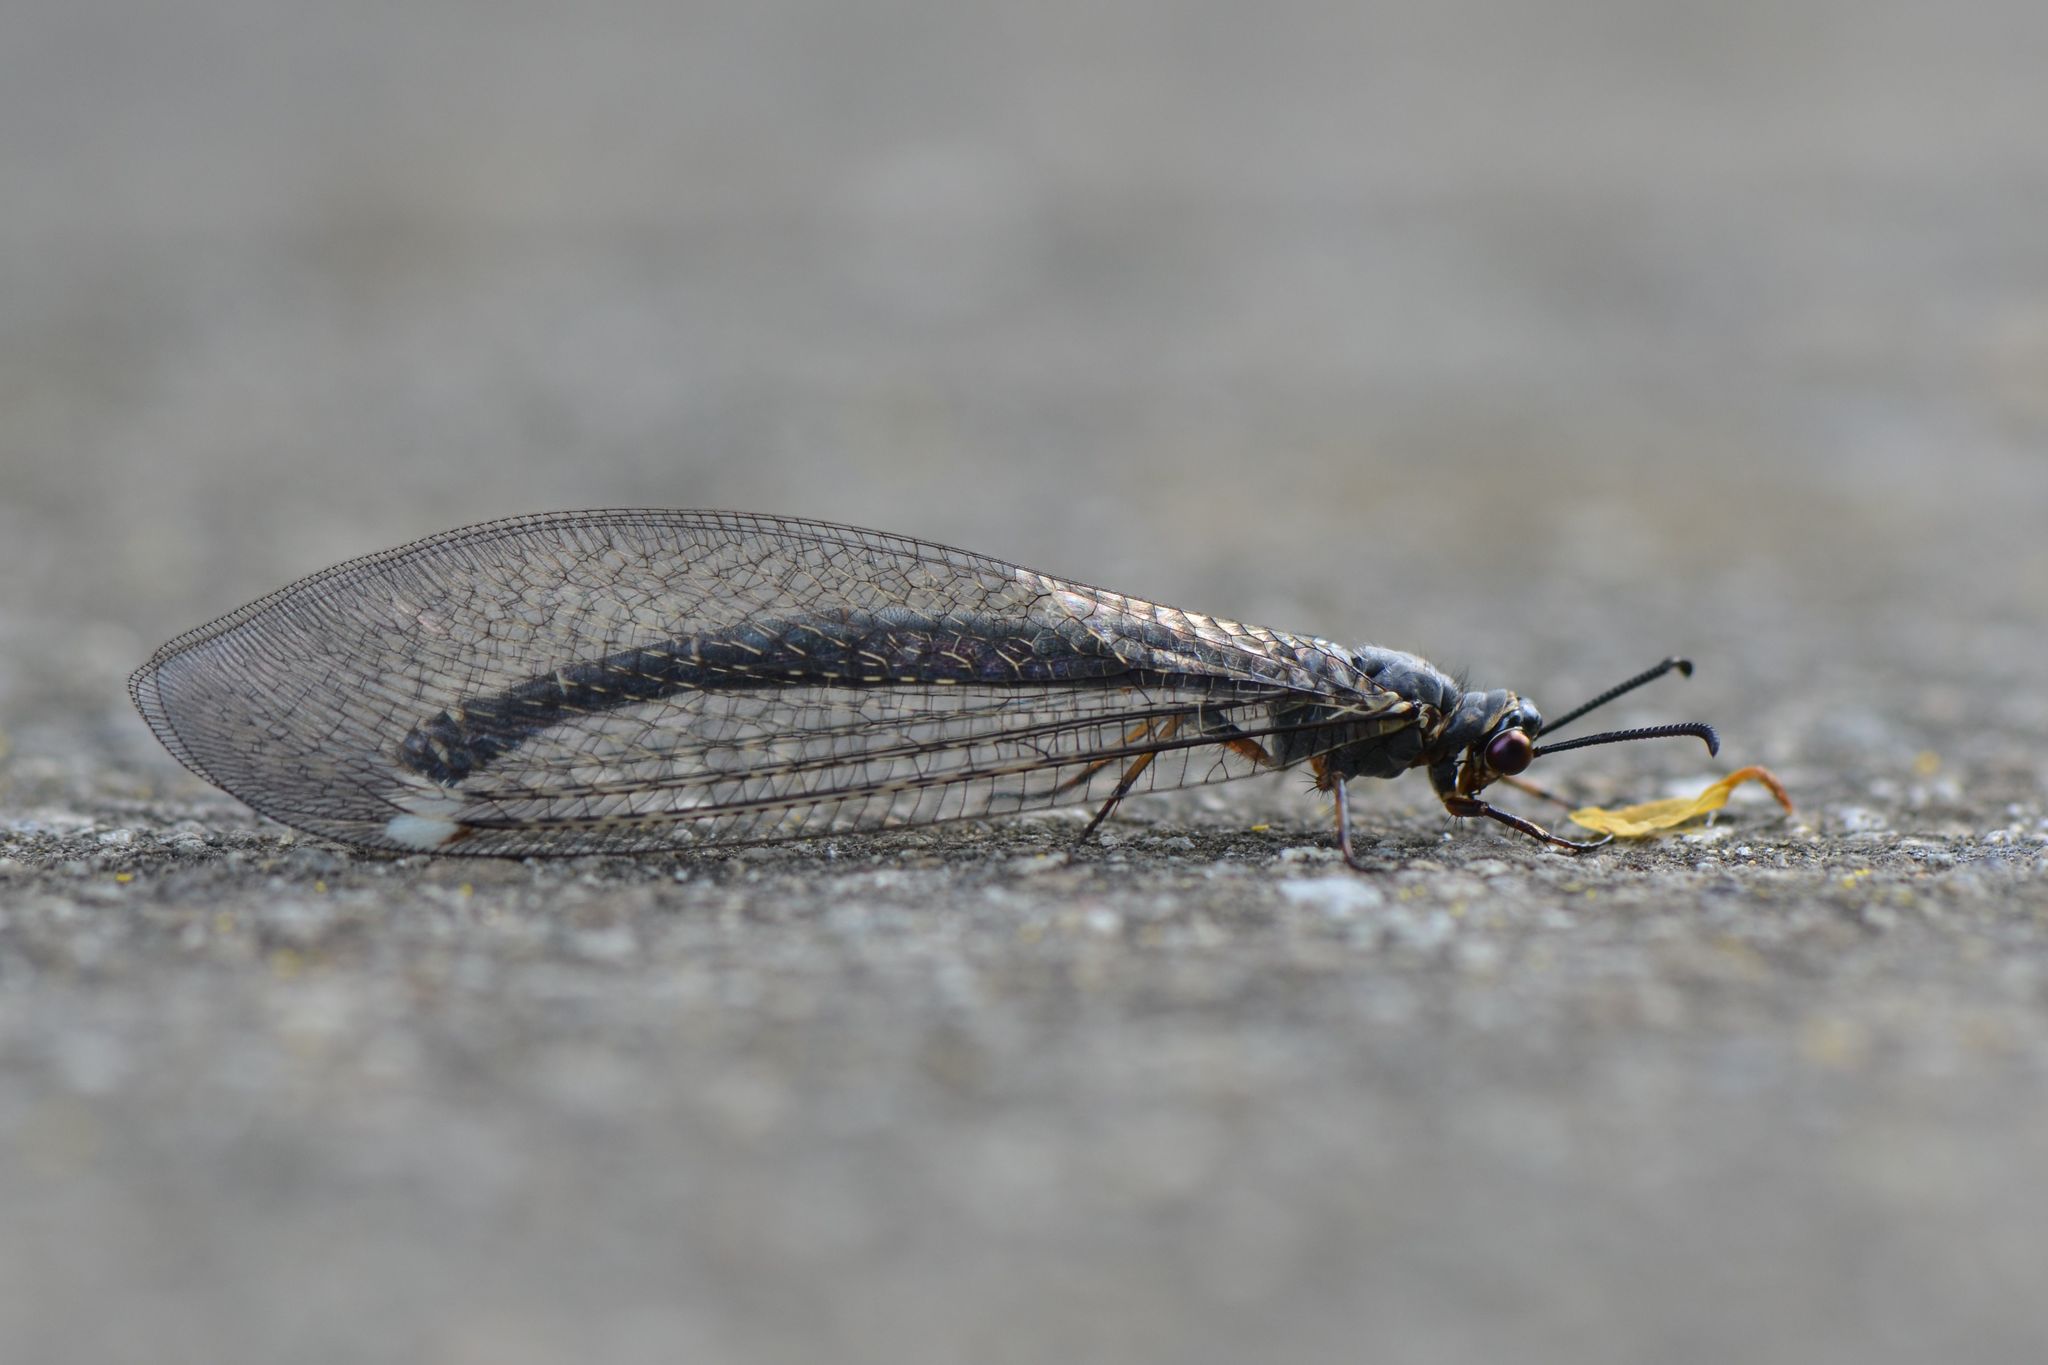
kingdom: Animalia
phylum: Arthropoda
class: Insecta
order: Neuroptera
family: Myrmeleontidae
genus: Myrmeleon
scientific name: Myrmeleon formicarius
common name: Ant-lion
